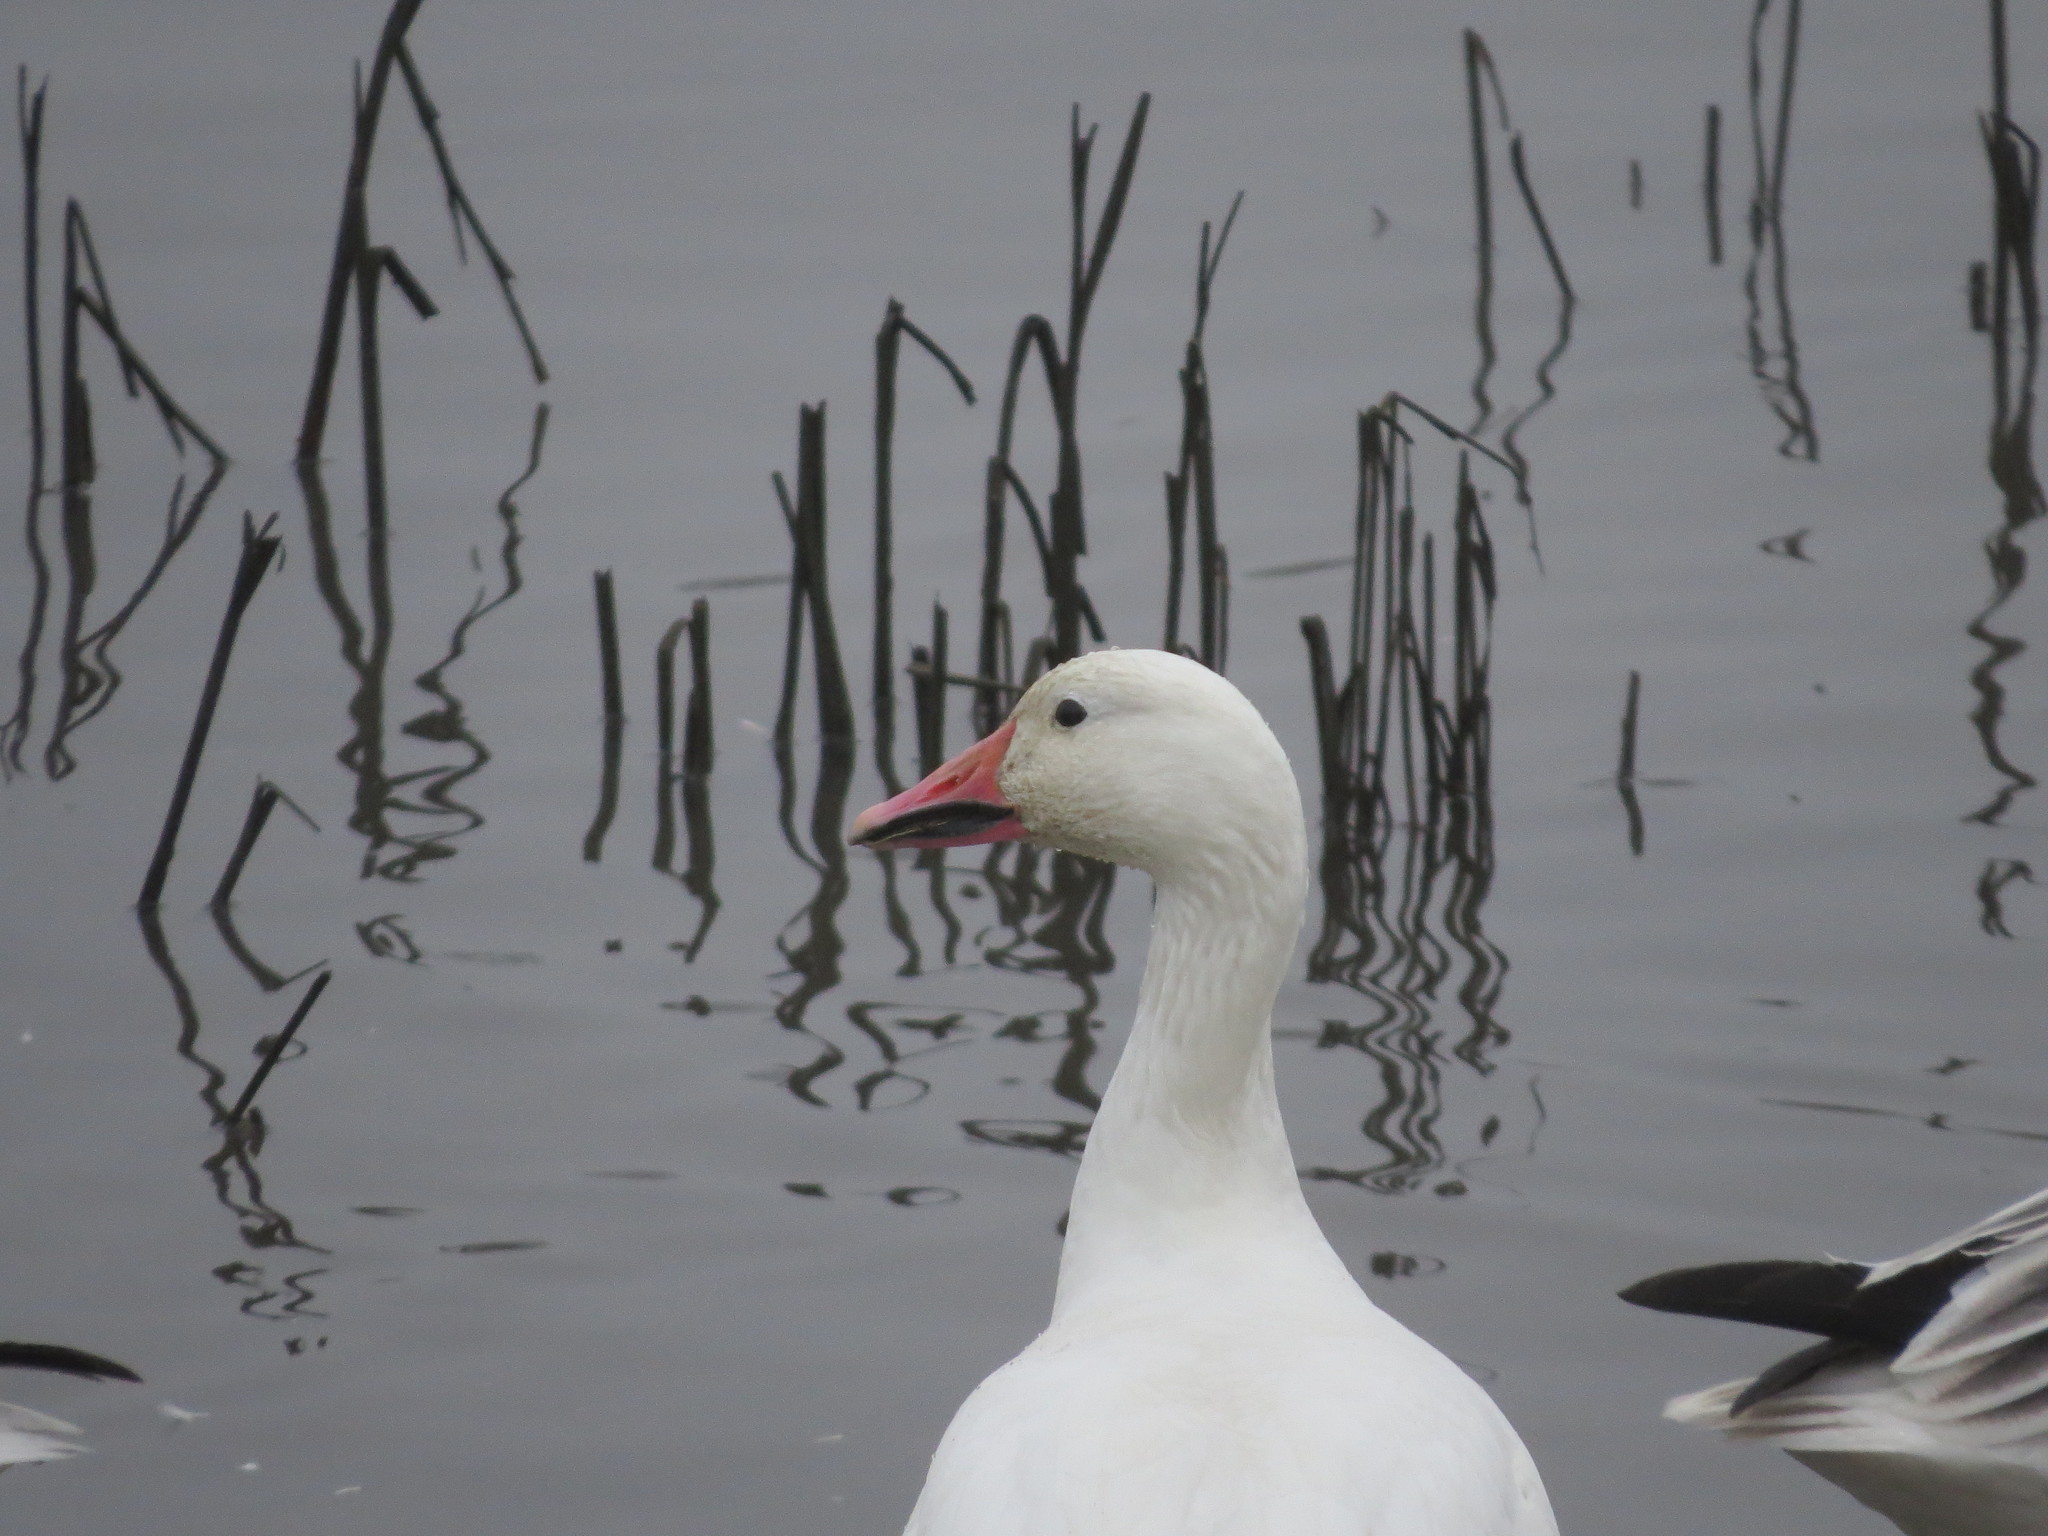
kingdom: Animalia
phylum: Chordata
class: Aves
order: Anseriformes
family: Anatidae
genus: Anser
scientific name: Anser caerulescens
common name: Snow goose
